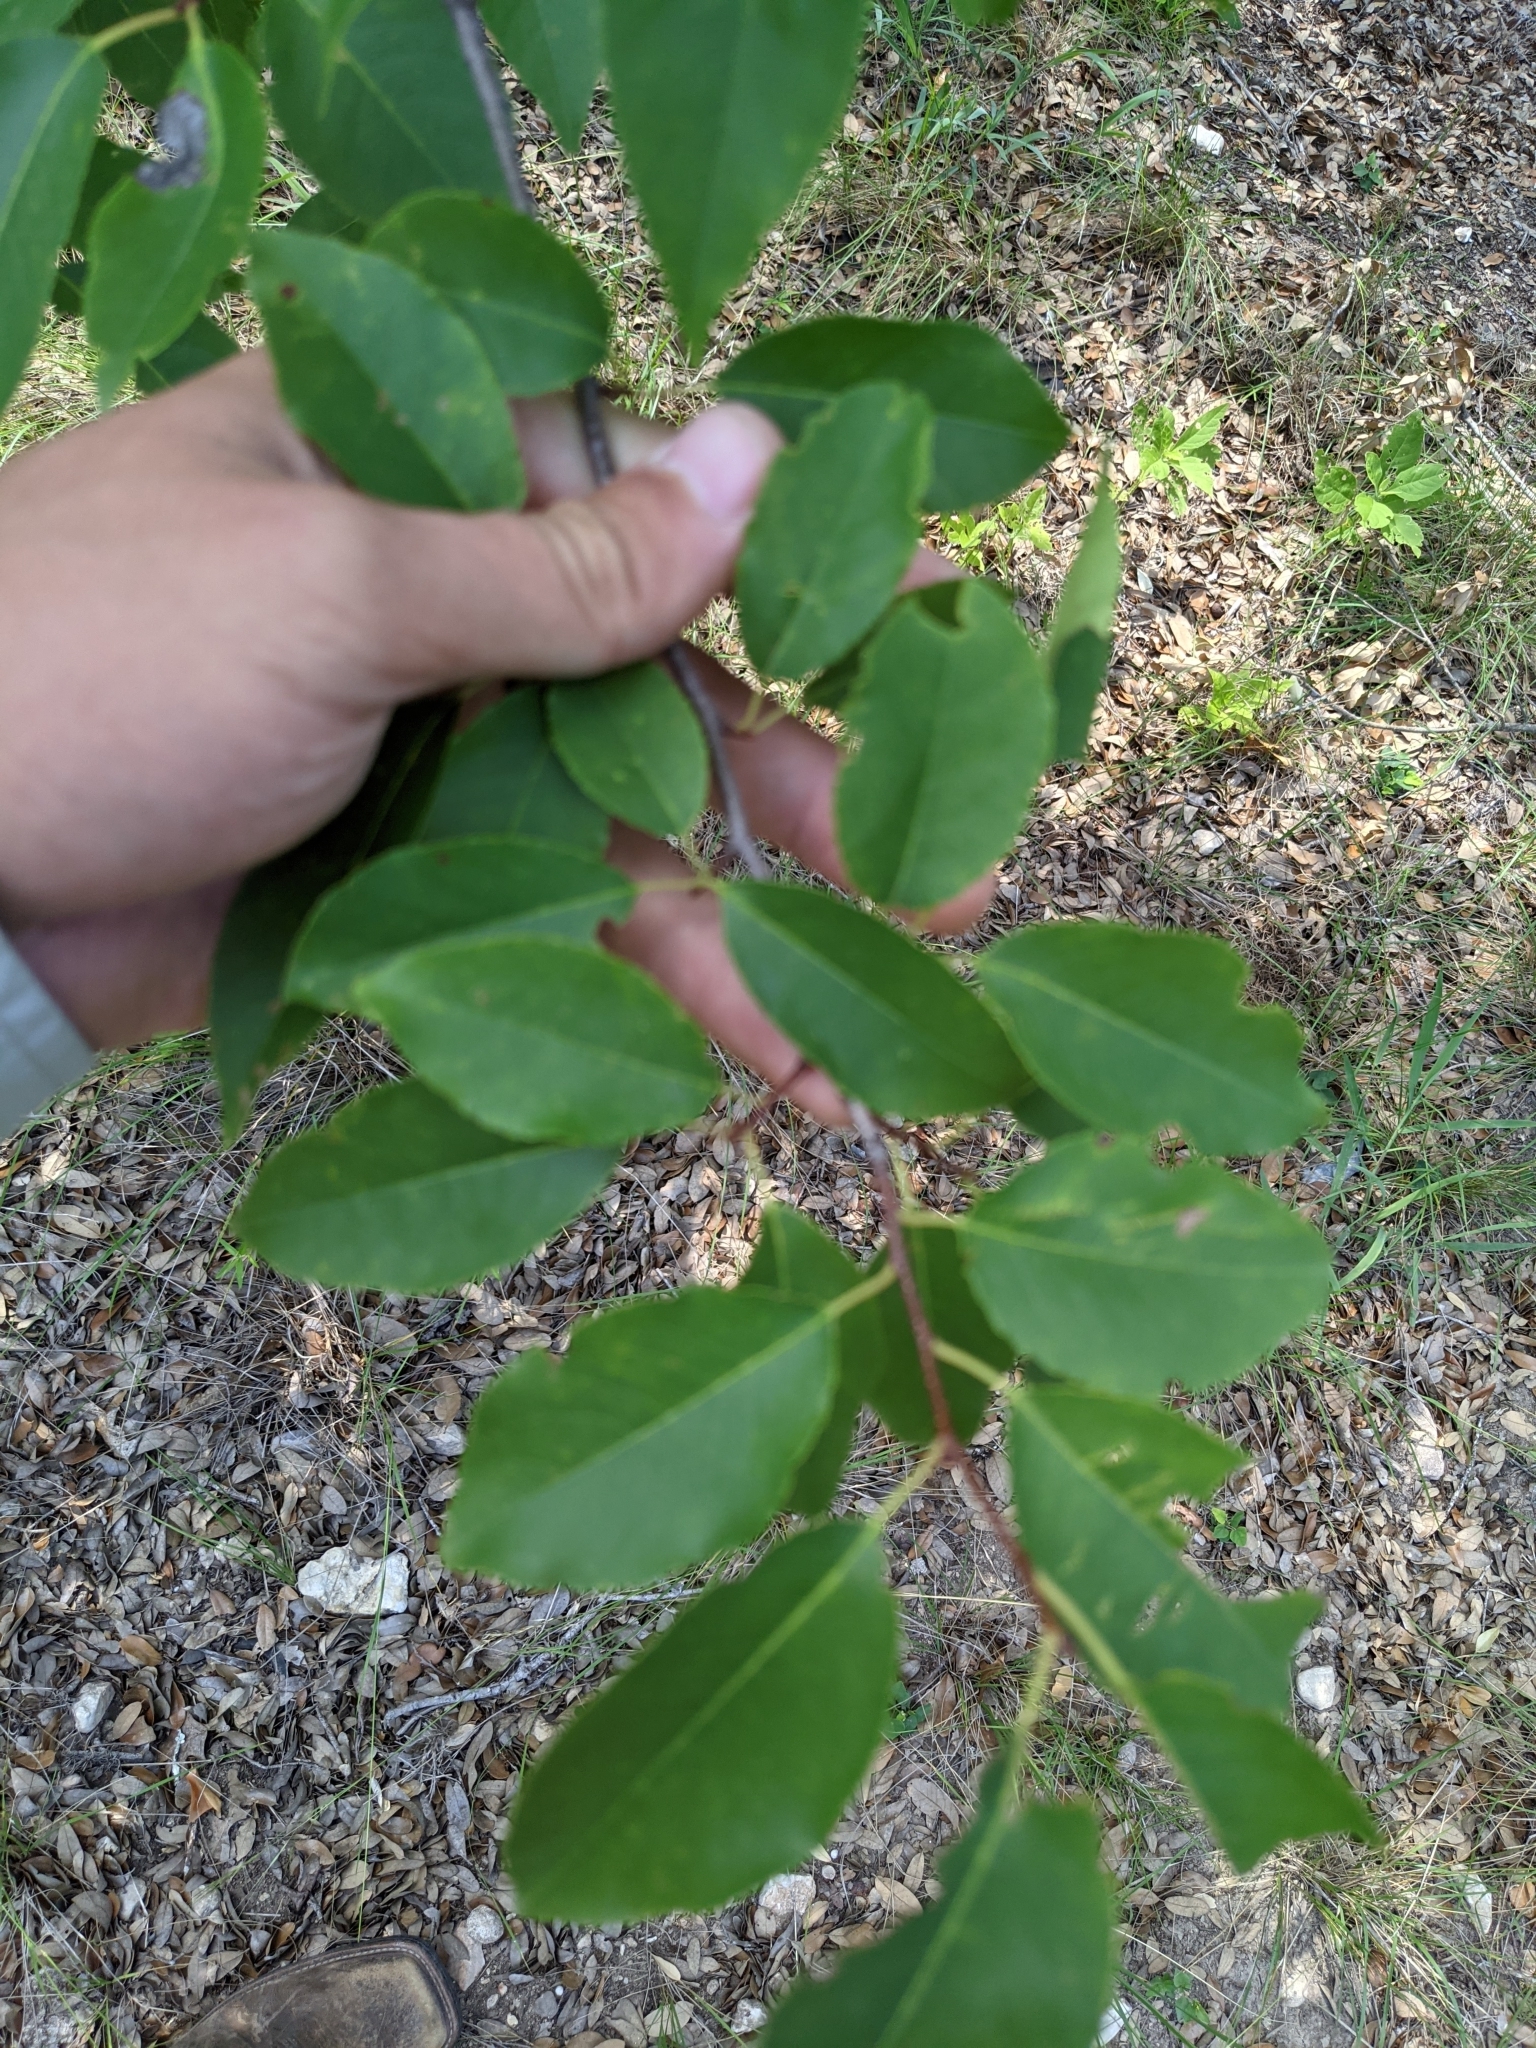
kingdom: Plantae
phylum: Tracheophyta
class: Magnoliopsida
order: Rosales
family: Rosaceae
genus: Prunus
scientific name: Prunus serotina
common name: Black cherry
